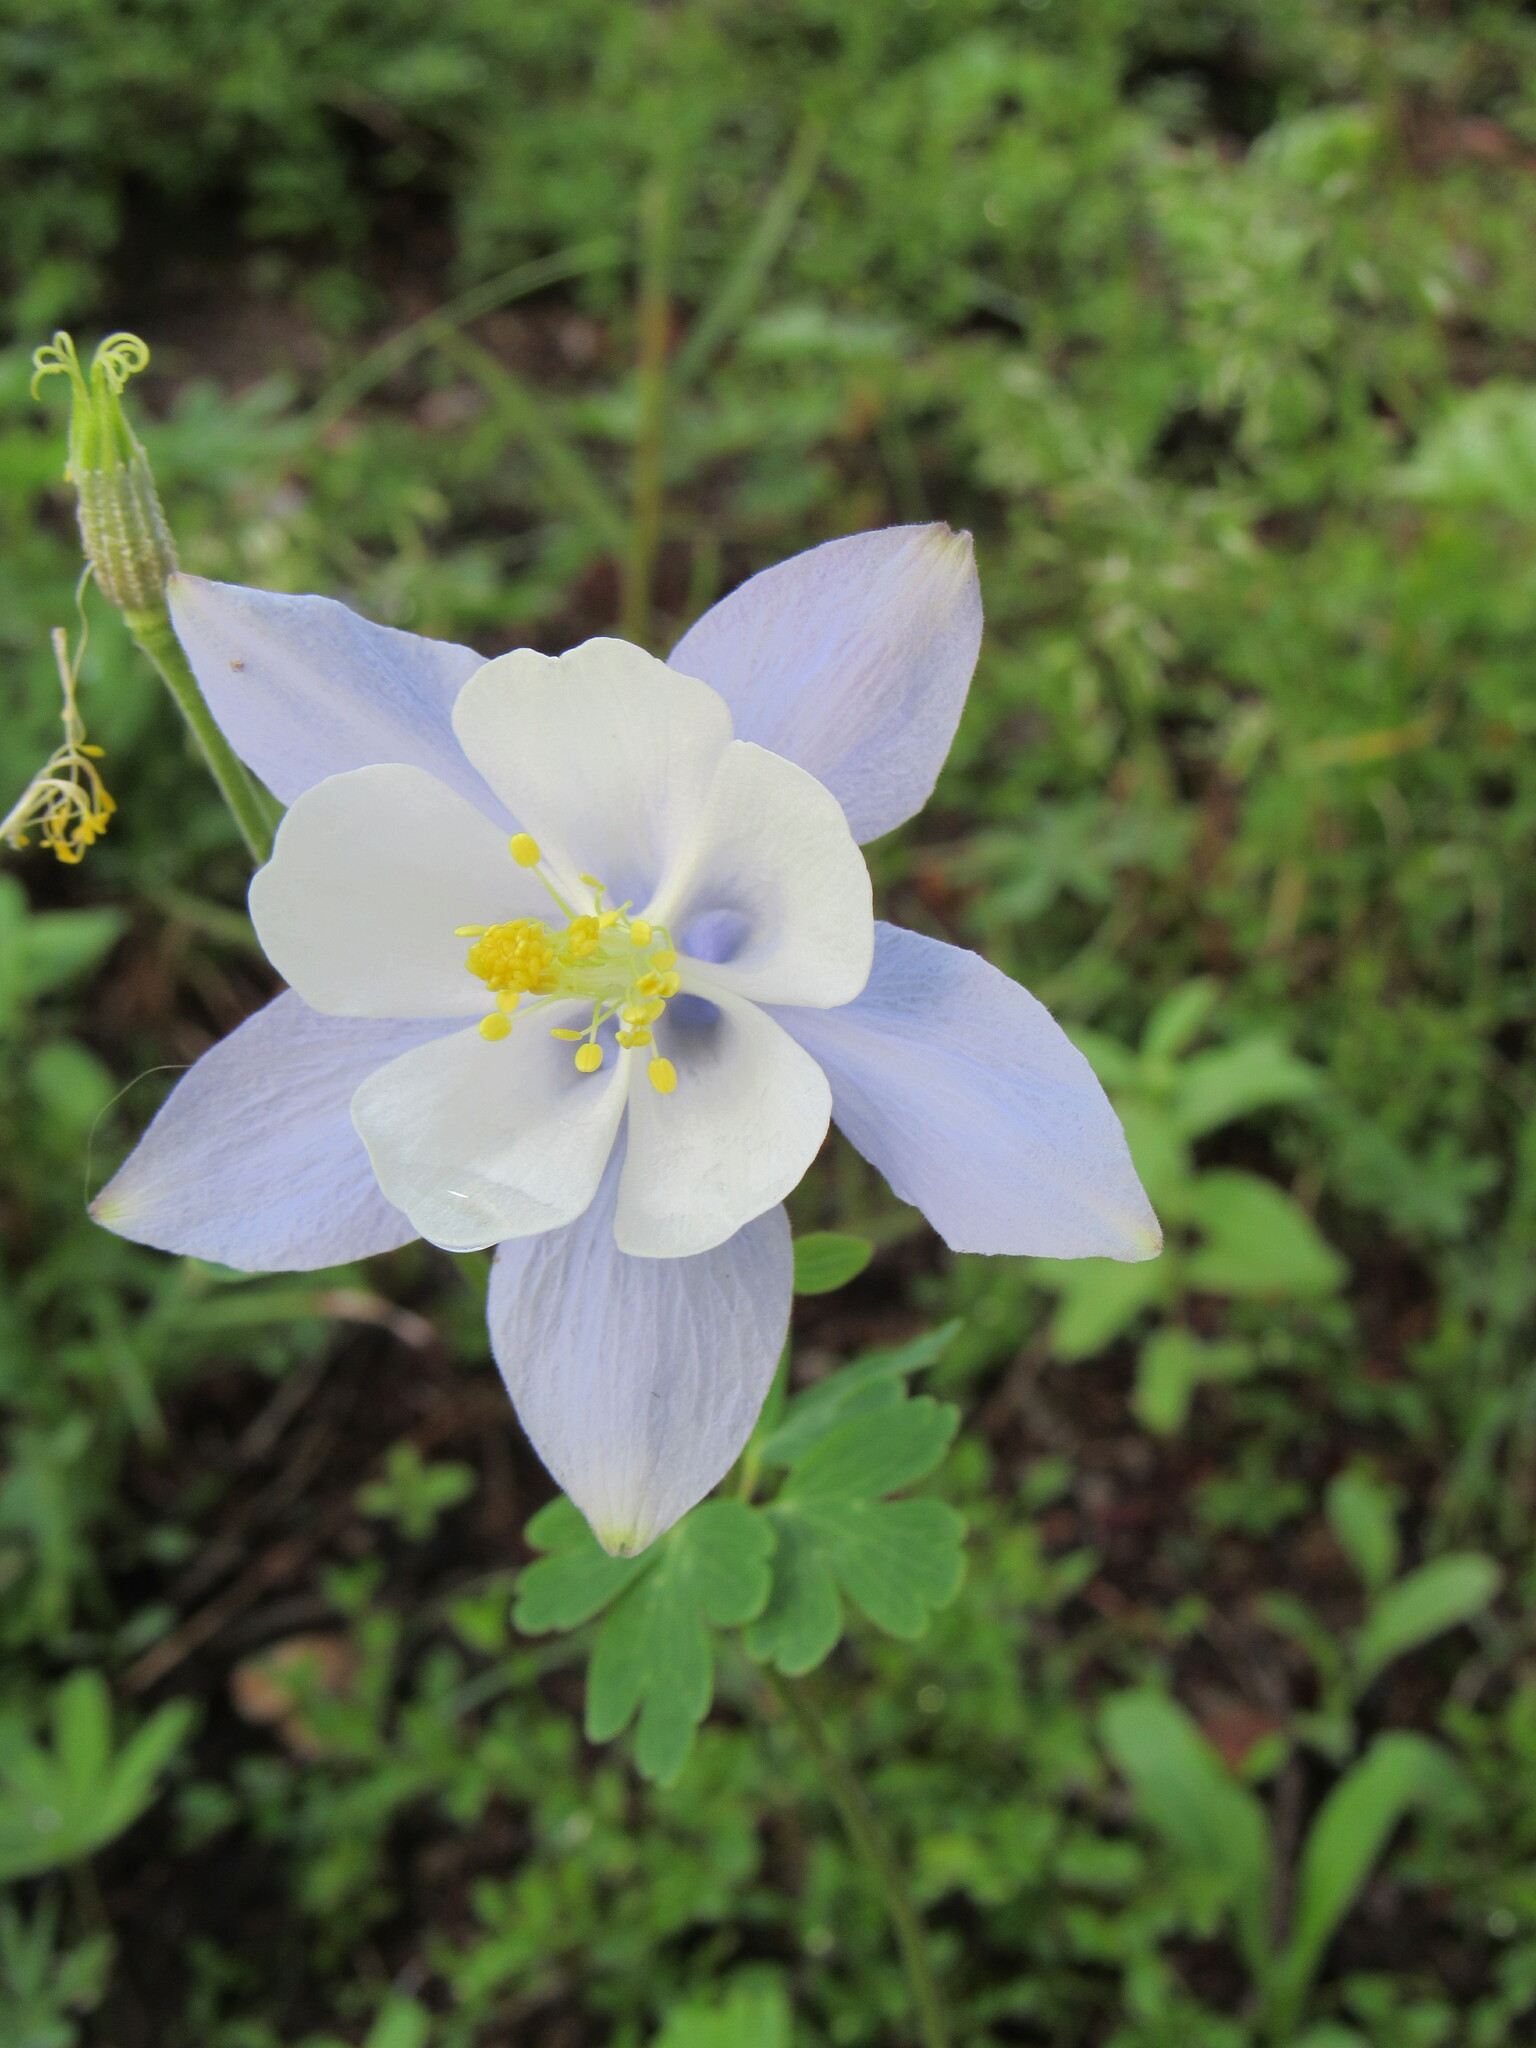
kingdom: Plantae
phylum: Tracheophyta
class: Magnoliopsida
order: Ranunculales
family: Ranunculaceae
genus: Aquilegia
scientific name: Aquilegia coerulea
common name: Rocky mountain columbine
